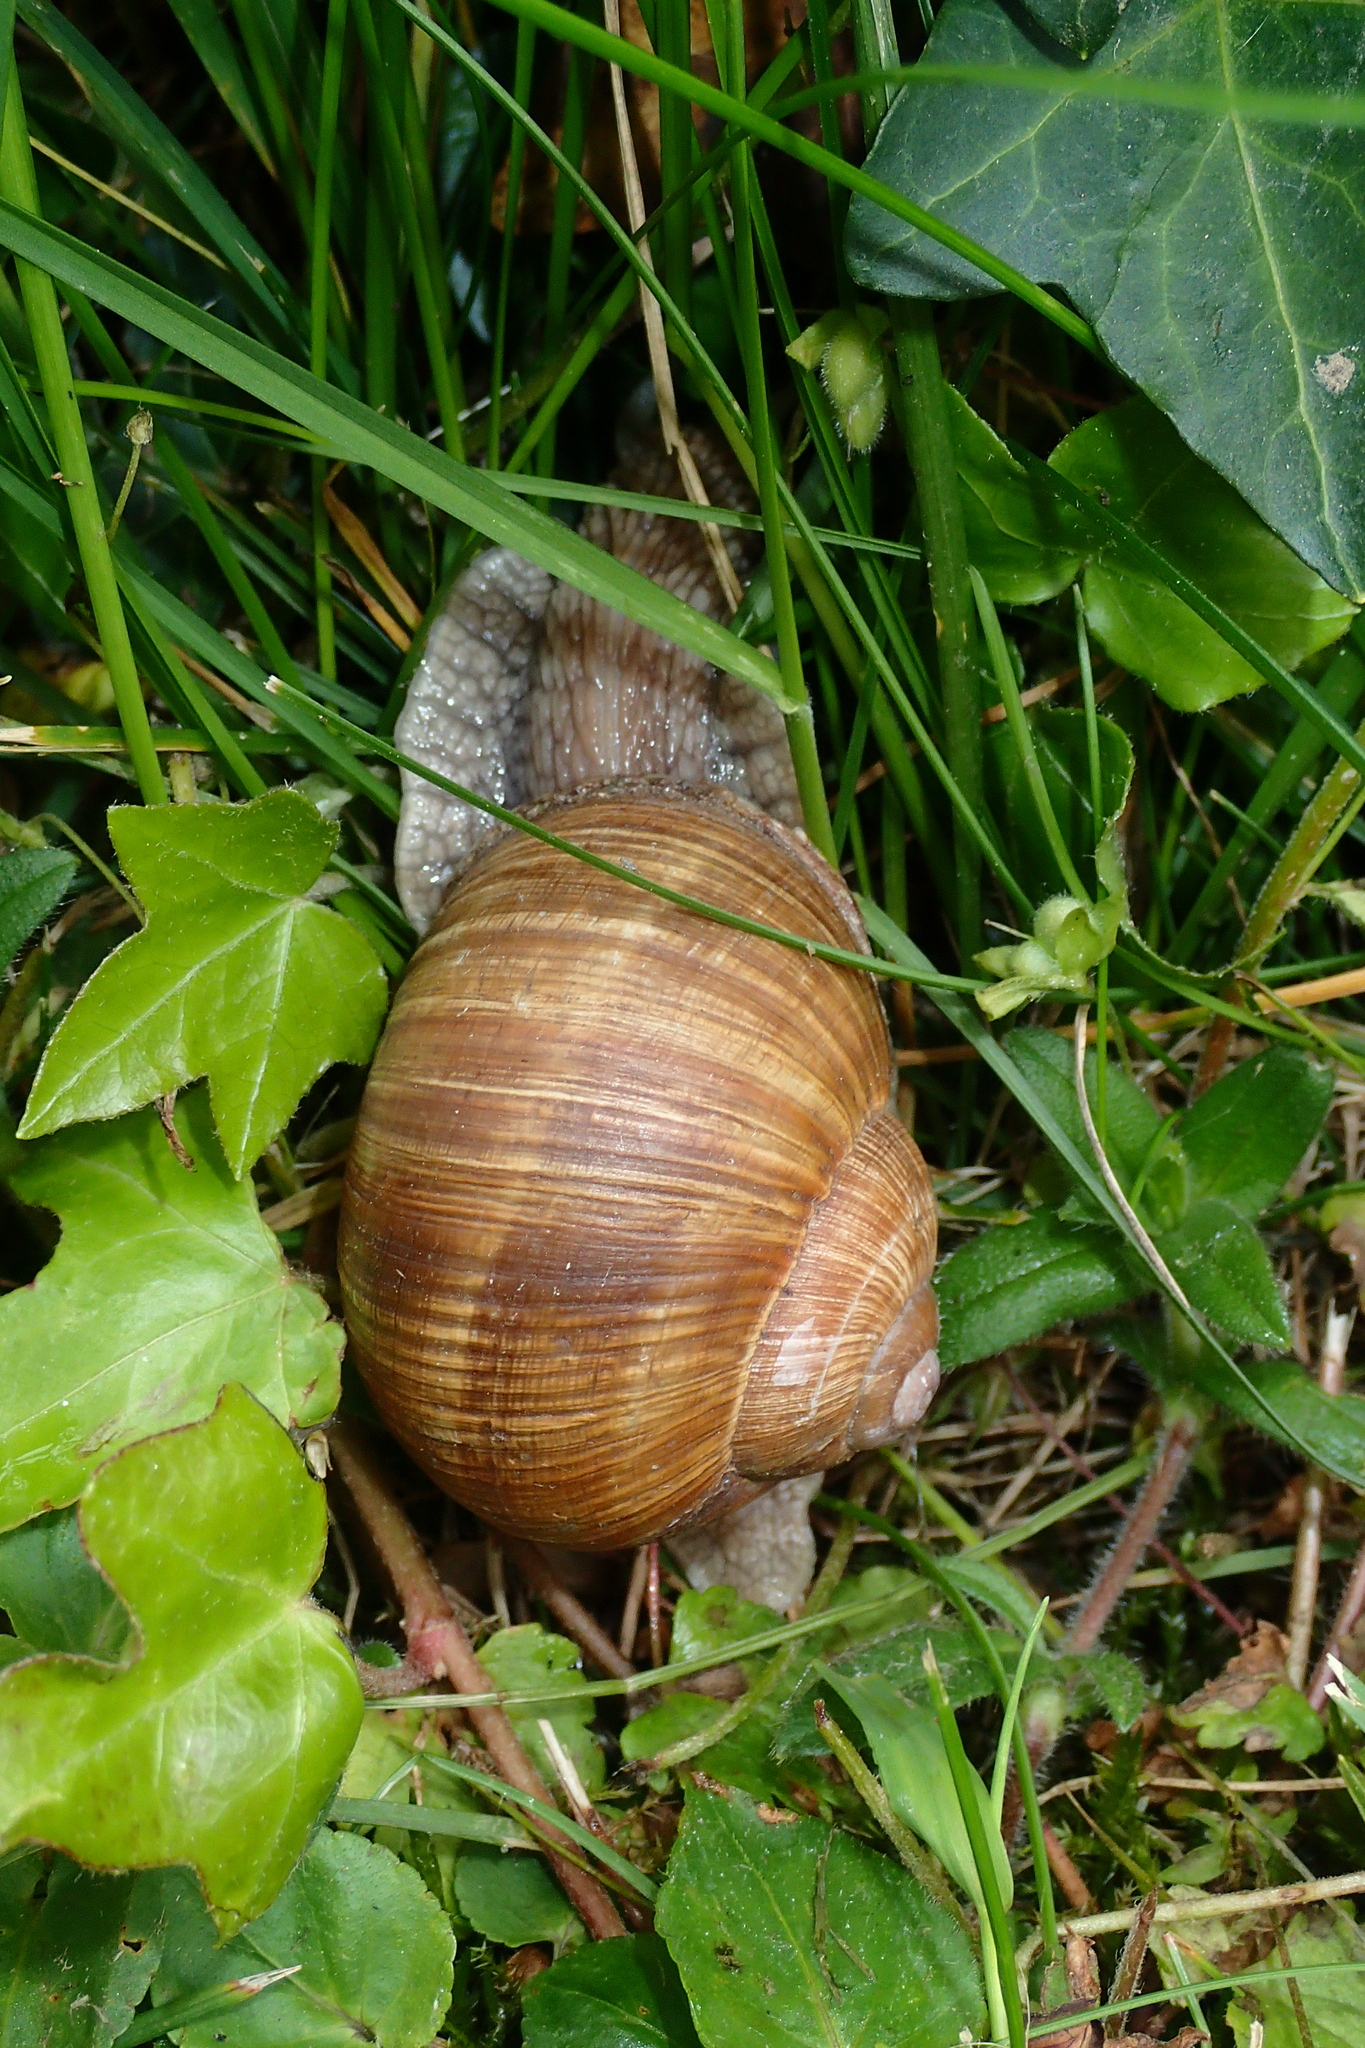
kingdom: Animalia
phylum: Mollusca
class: Gastropoda
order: Stylommatophora
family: Helicidae
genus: Helix
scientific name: Helix pomatia
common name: Roman snail
